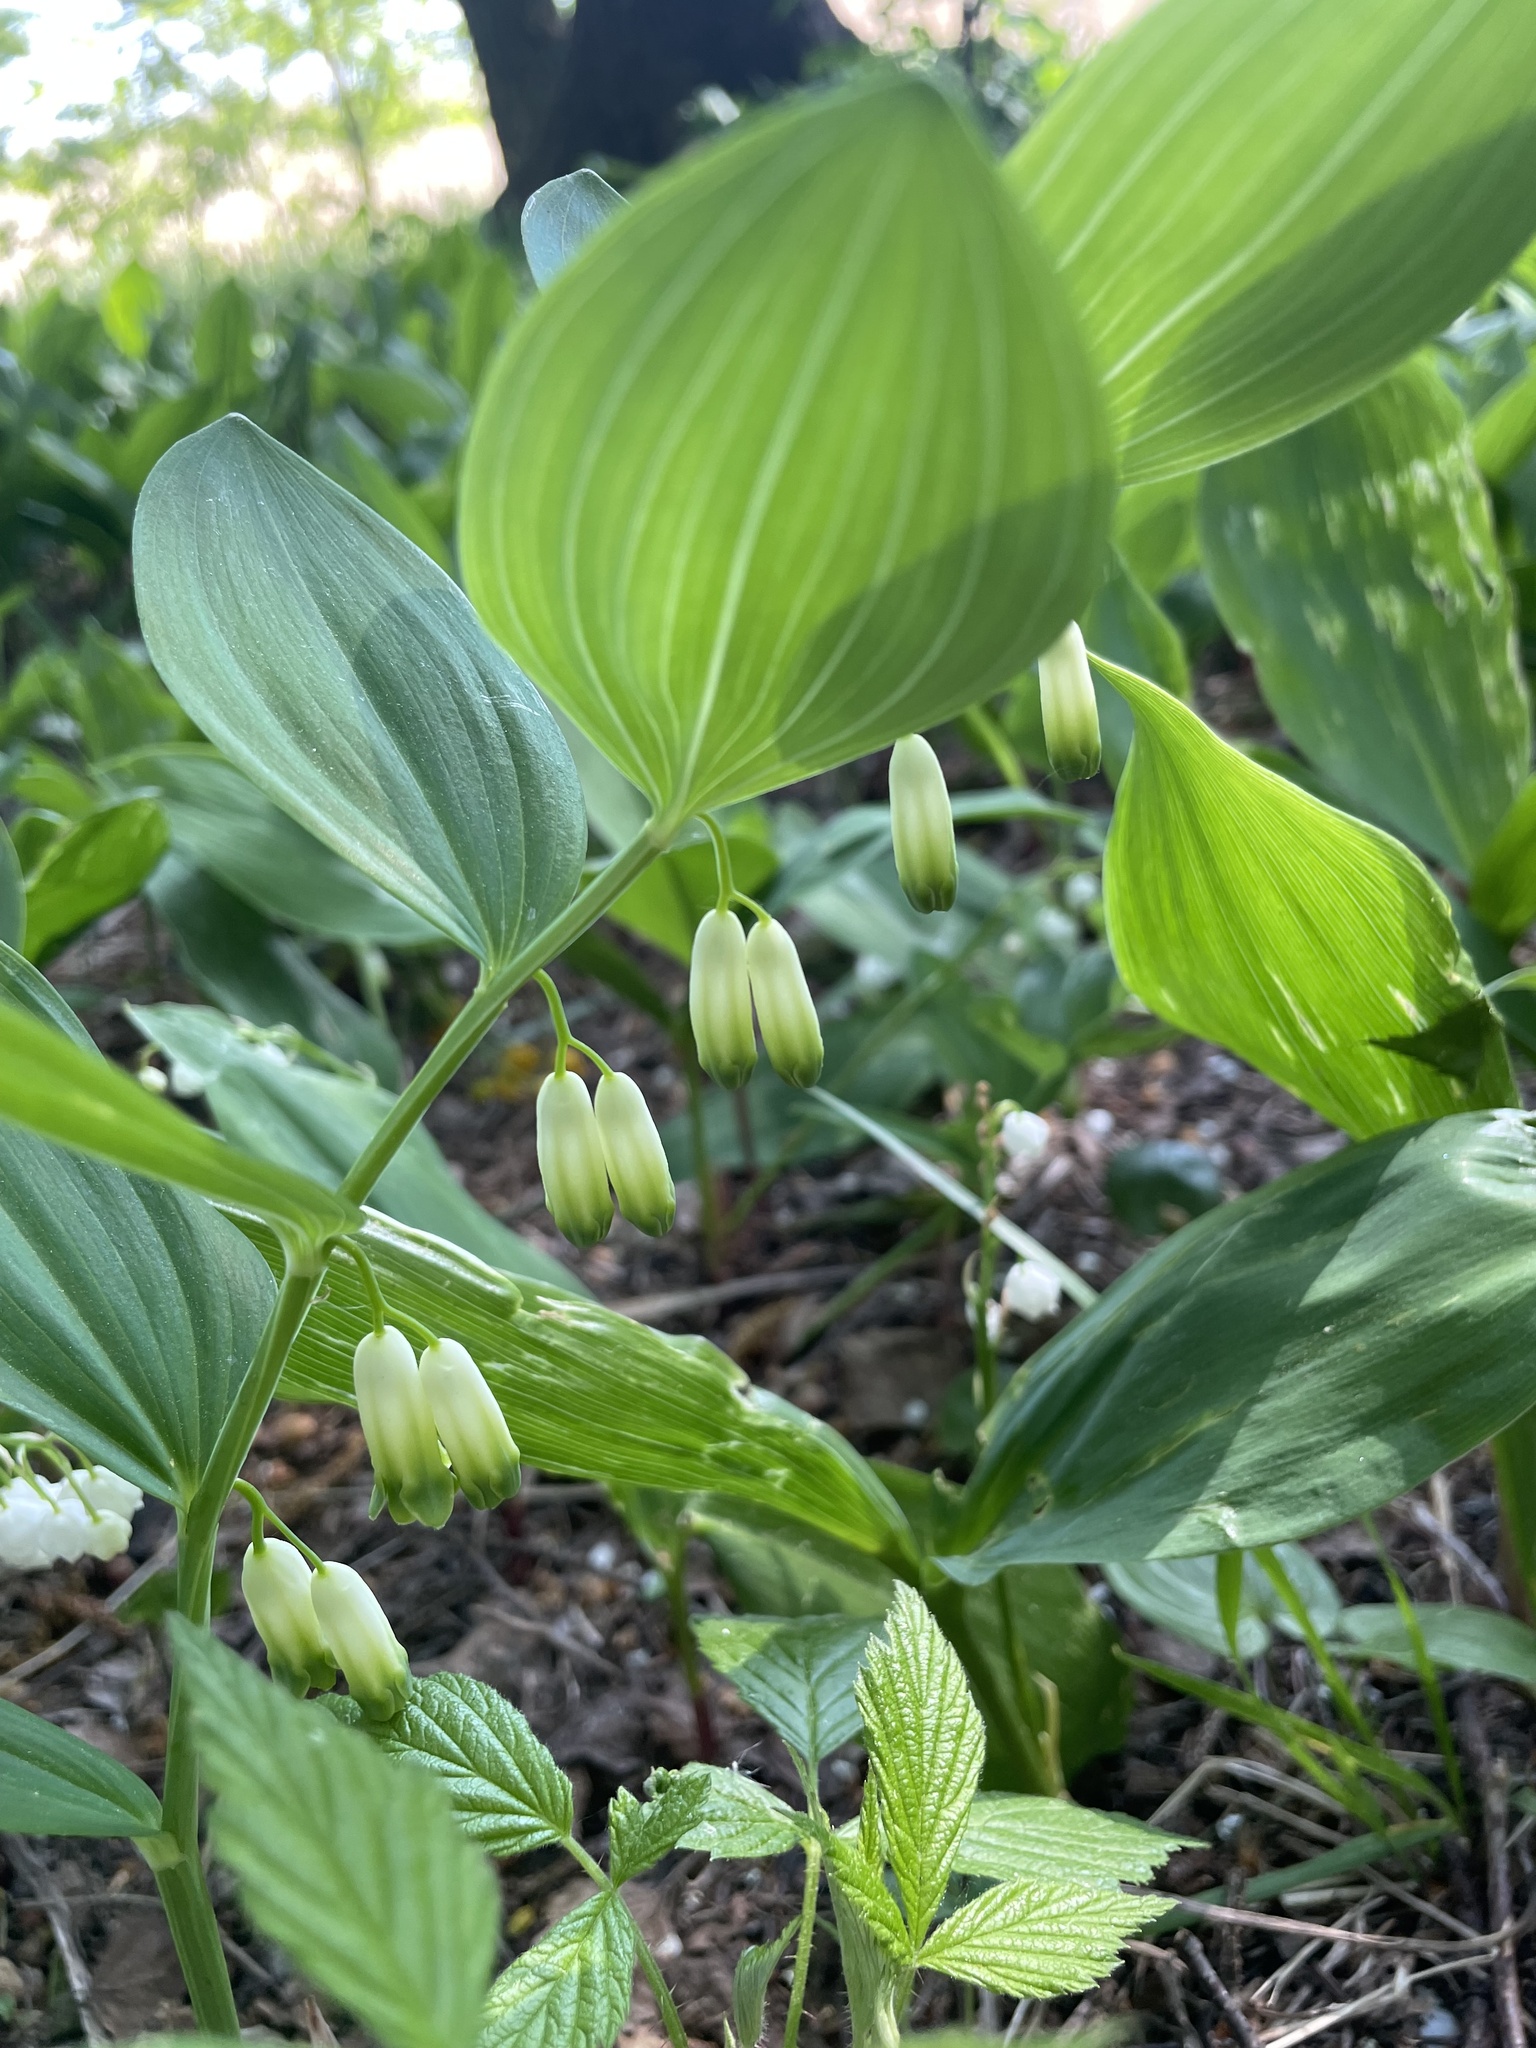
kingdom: Plantae
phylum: Tracheophyta
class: Liliopsida
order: Asparagales
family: Asparagaceae
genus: Polygonatum
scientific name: Polygonatum odoratum
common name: Angular solomon's-seal
